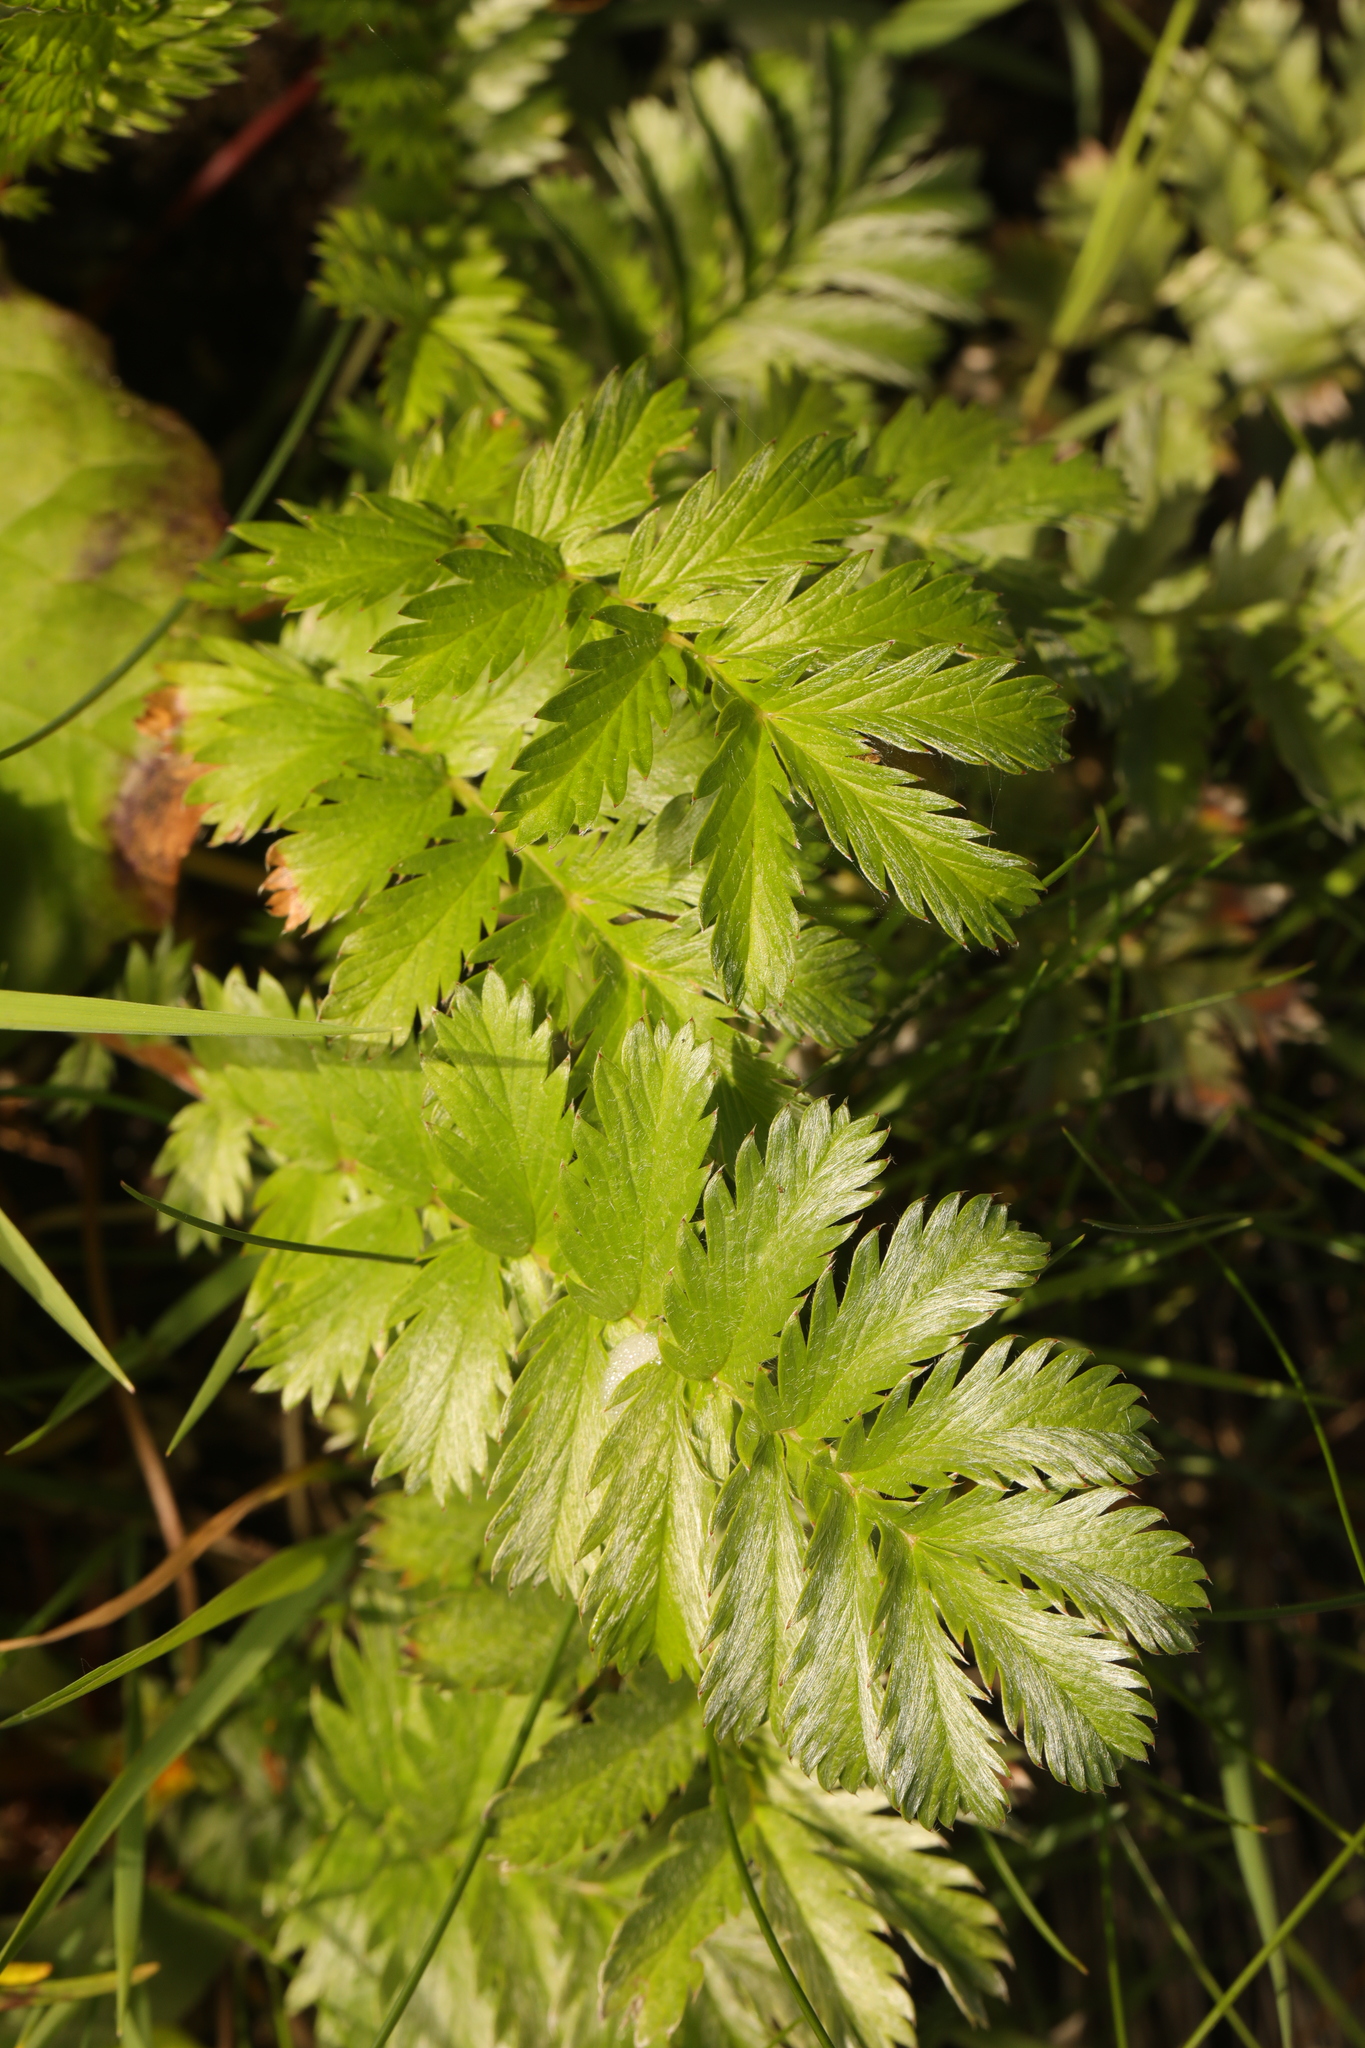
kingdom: Plantae
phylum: Tracheophyta
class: Magnoliopsida
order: Rosales
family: Rosaceae
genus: Argentina
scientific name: Argentina anserina
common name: Common silverweed
